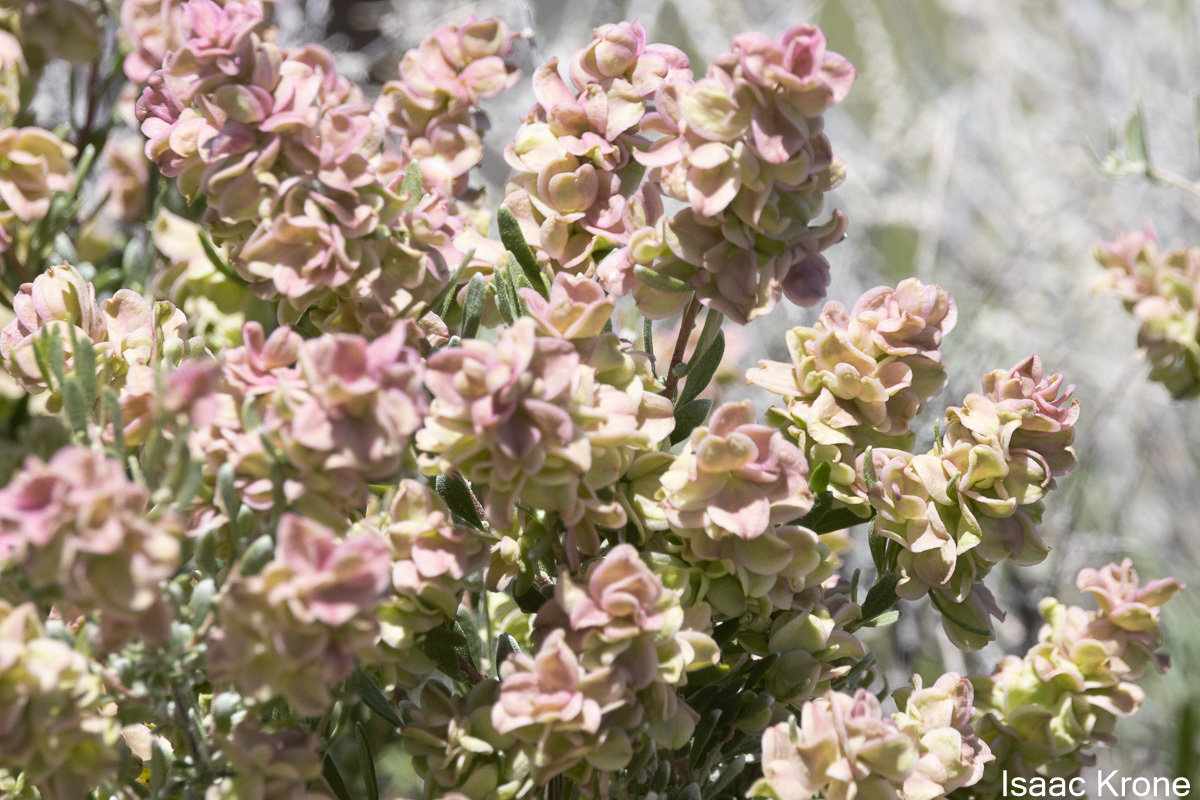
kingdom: Plantae
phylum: Tracheophyta
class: Magnoliopsida
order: Caryophyllales
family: Amaranthaceae
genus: Grayia
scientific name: Grayia spinosa
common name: Spiny hopsage
